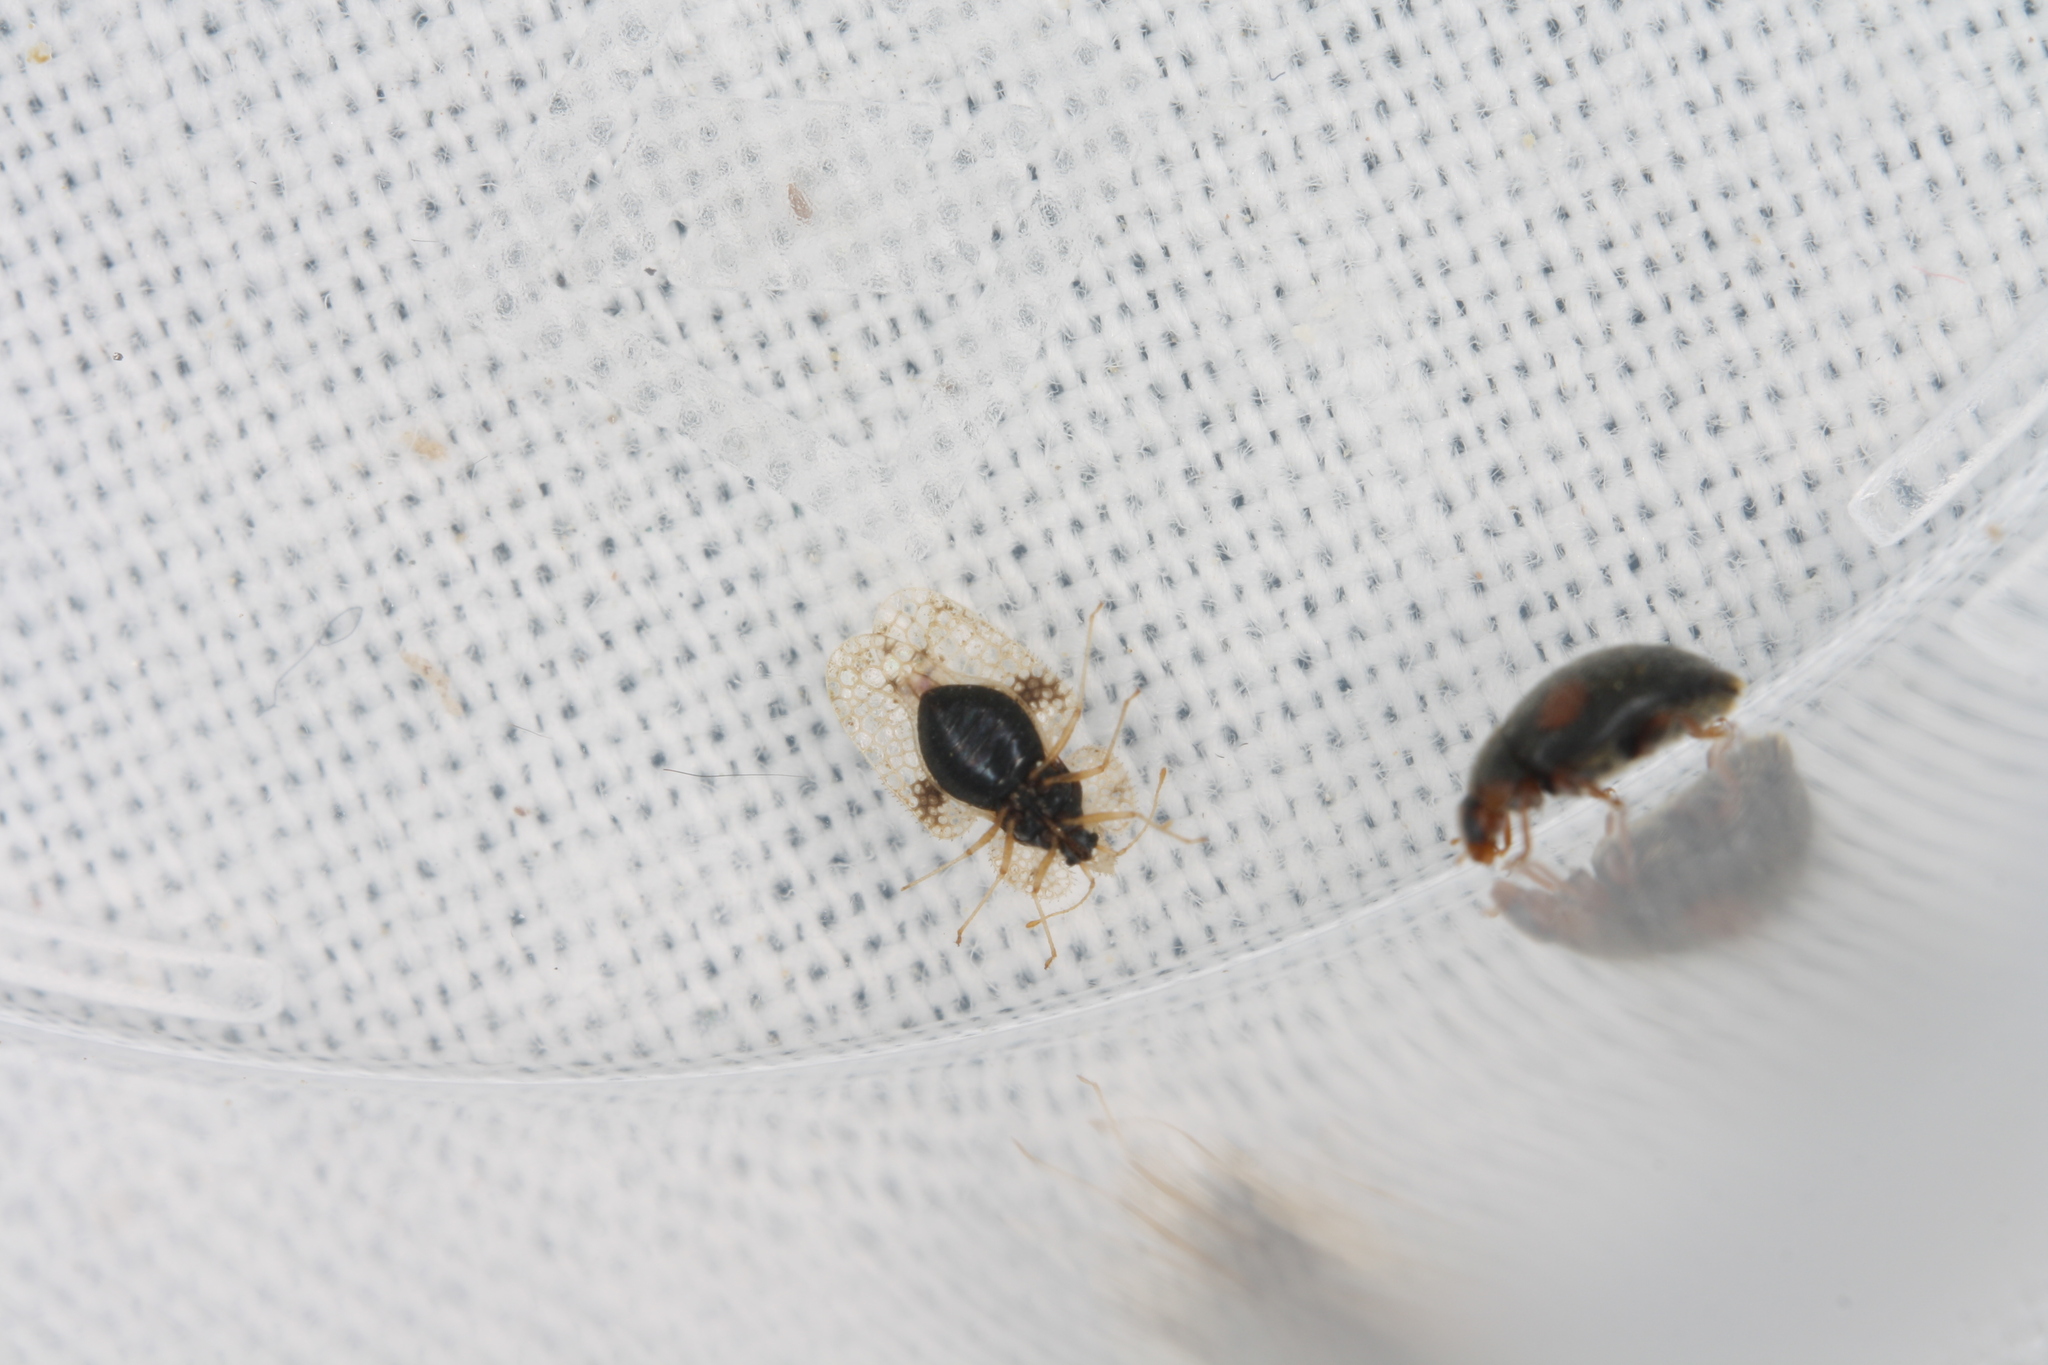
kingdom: Animalia
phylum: Arthropoda
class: Insecta
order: Hemiptera
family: Tingidae
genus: Corythucha
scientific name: Corythucha arcuata
